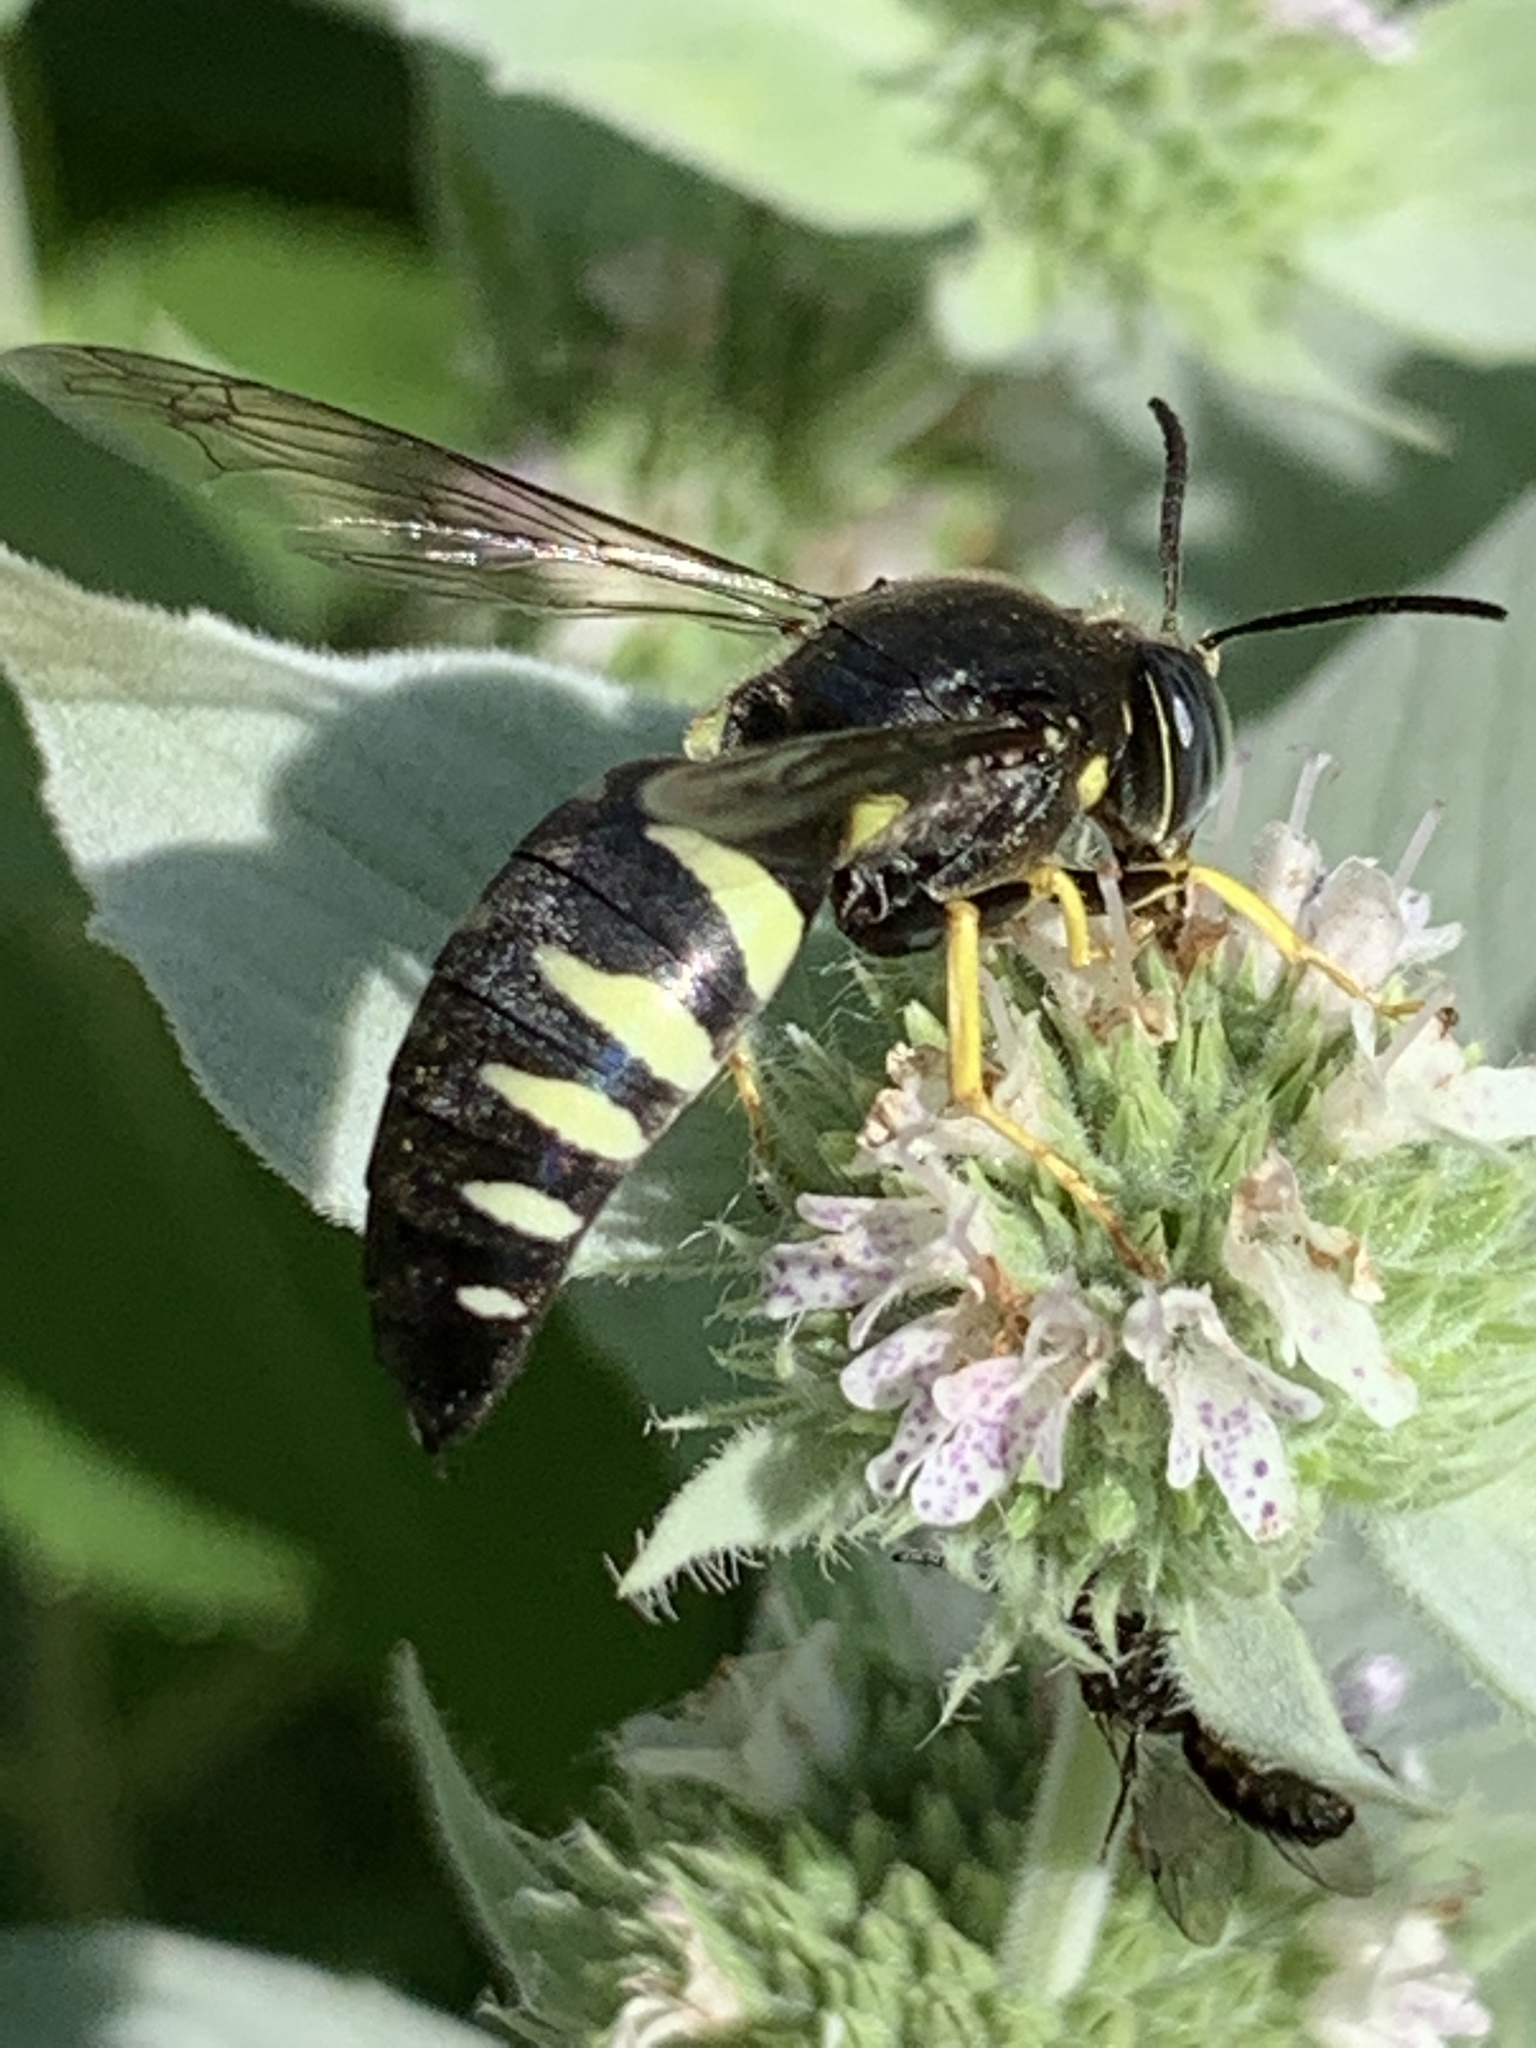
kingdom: Animalia
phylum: Arthropoda
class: Insecta
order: Hymenoptera
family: Crabronidae
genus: Bicyrtes
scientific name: Bicyrtes quadrifasciatus
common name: Four-banded stink bug hunter wasp
